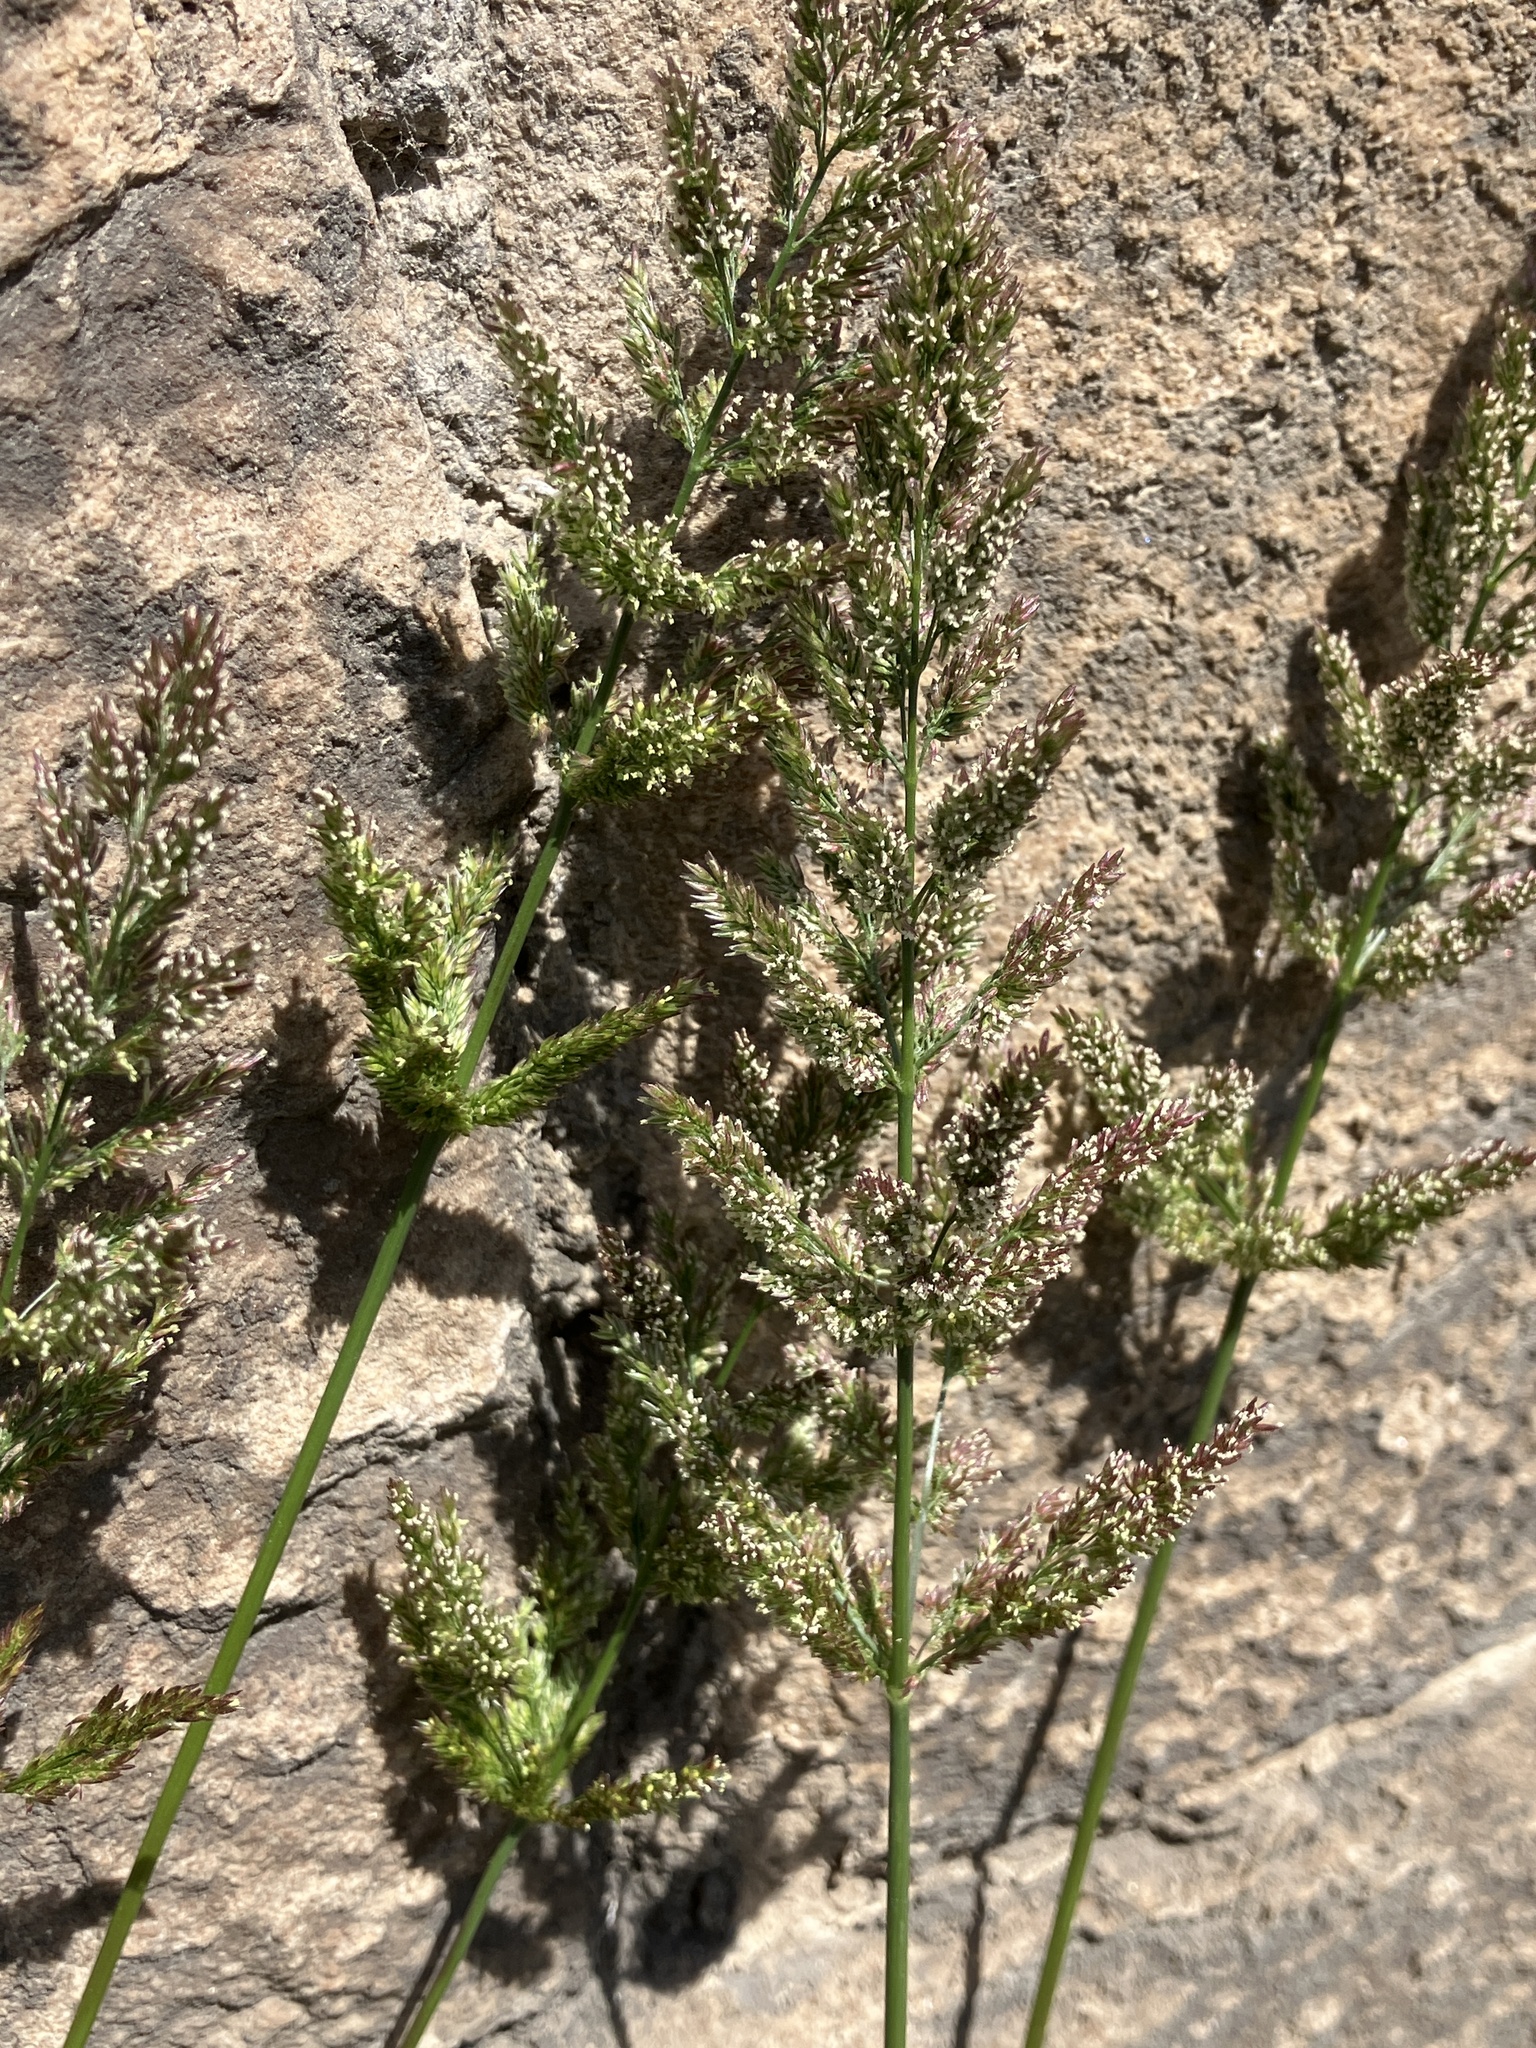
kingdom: Plantae
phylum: Tracheophyta
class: Liliopsida
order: Poales
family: Poaceae
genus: Polypogon
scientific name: Polypogon viridis
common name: Water bent
